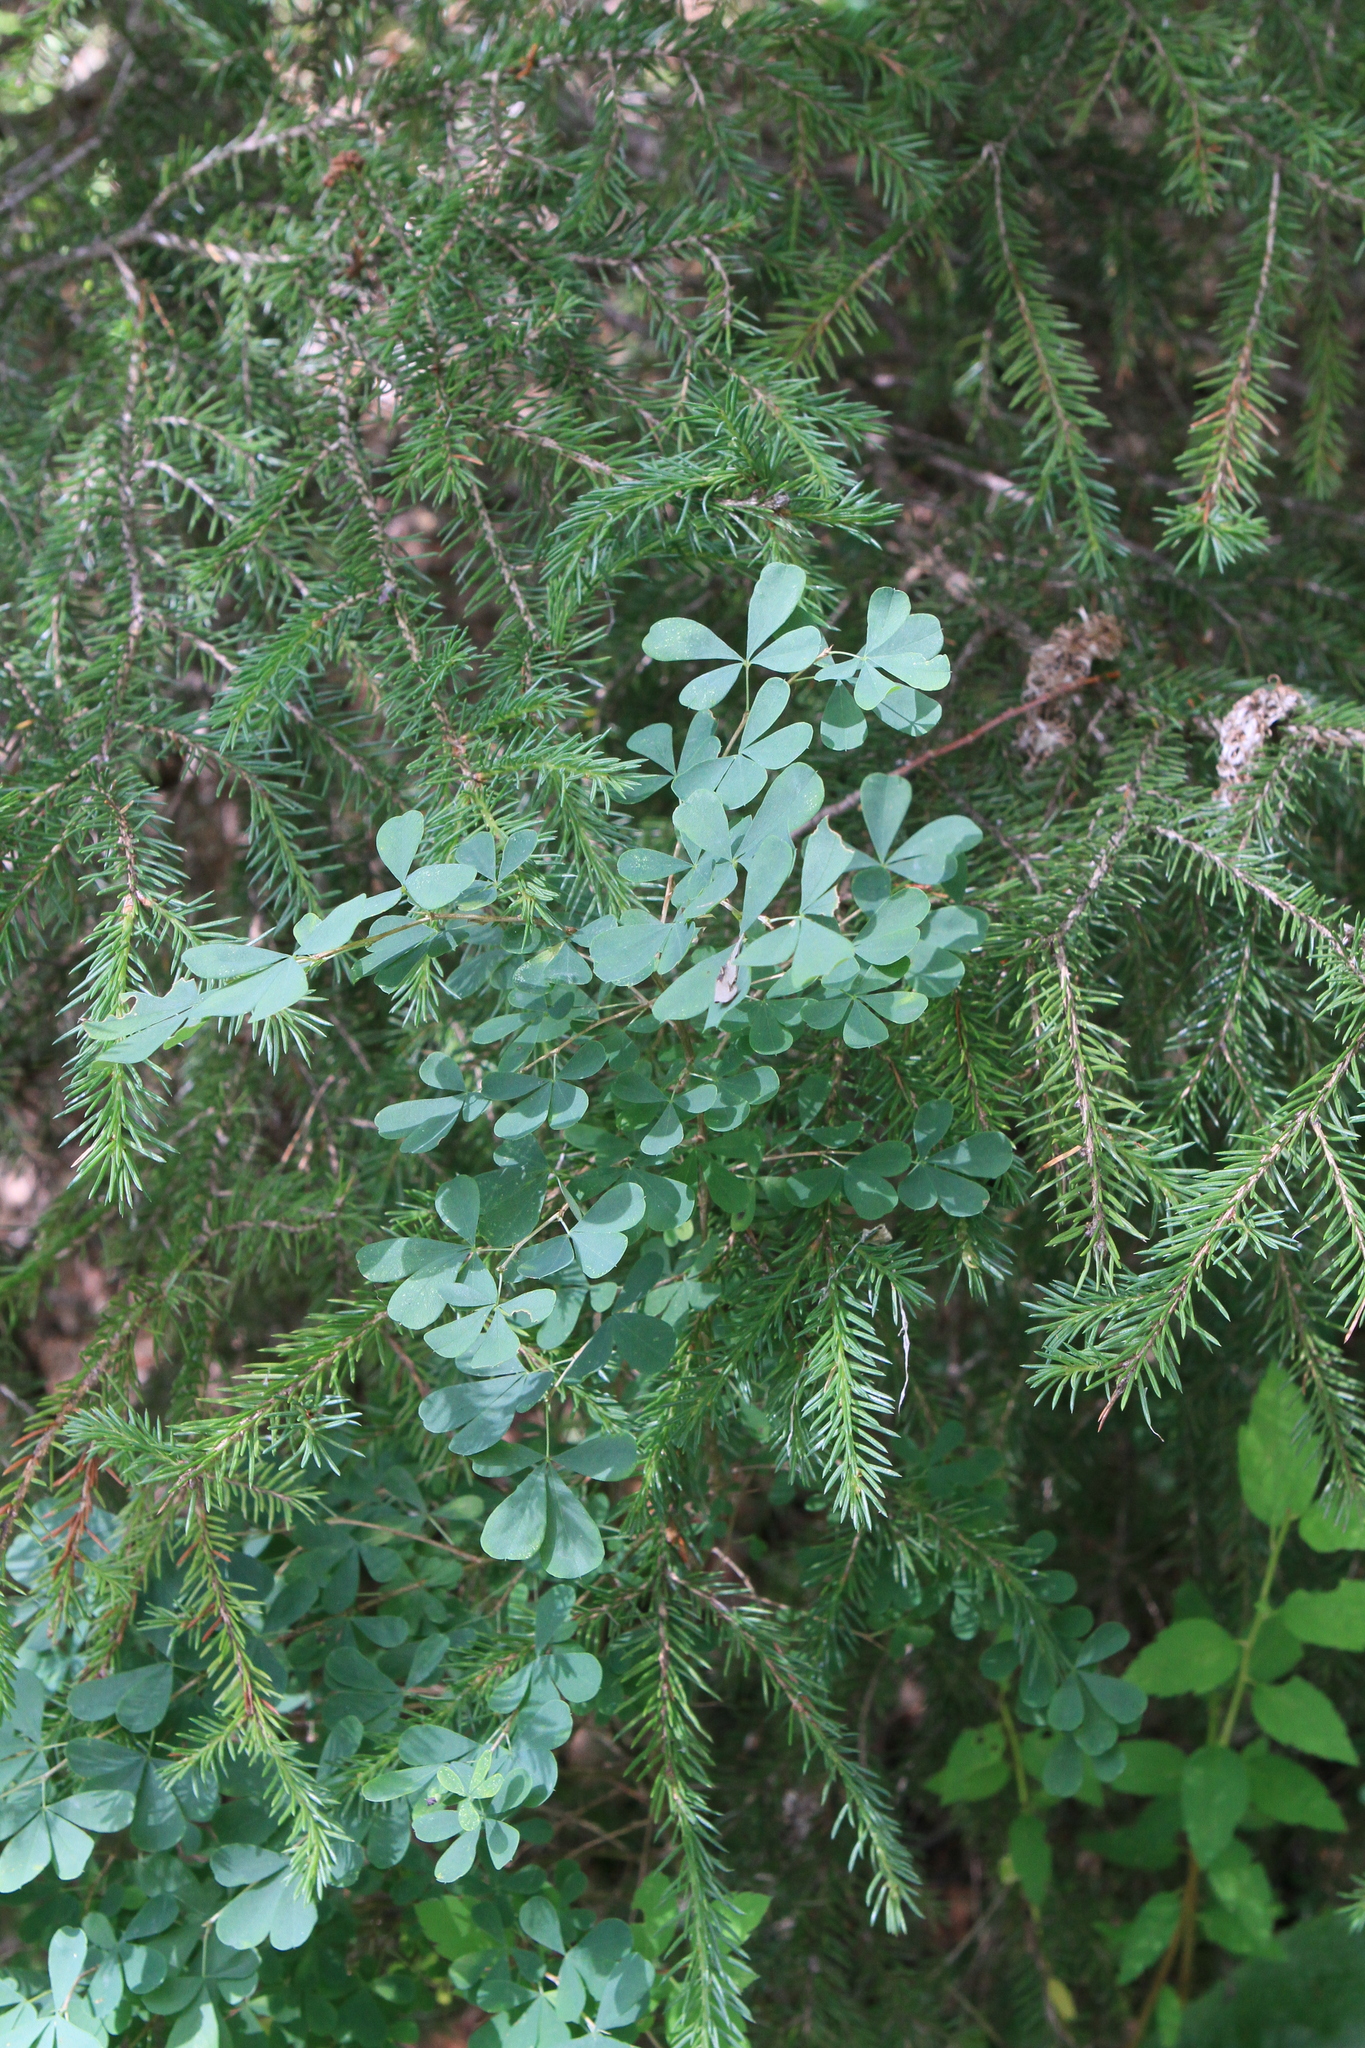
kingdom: Plantae
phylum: Tracheophyta
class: Magnoliopsida
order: Fabales
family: Fabaceae
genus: Caragana
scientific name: Caragana frutex
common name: Russian peashrub
